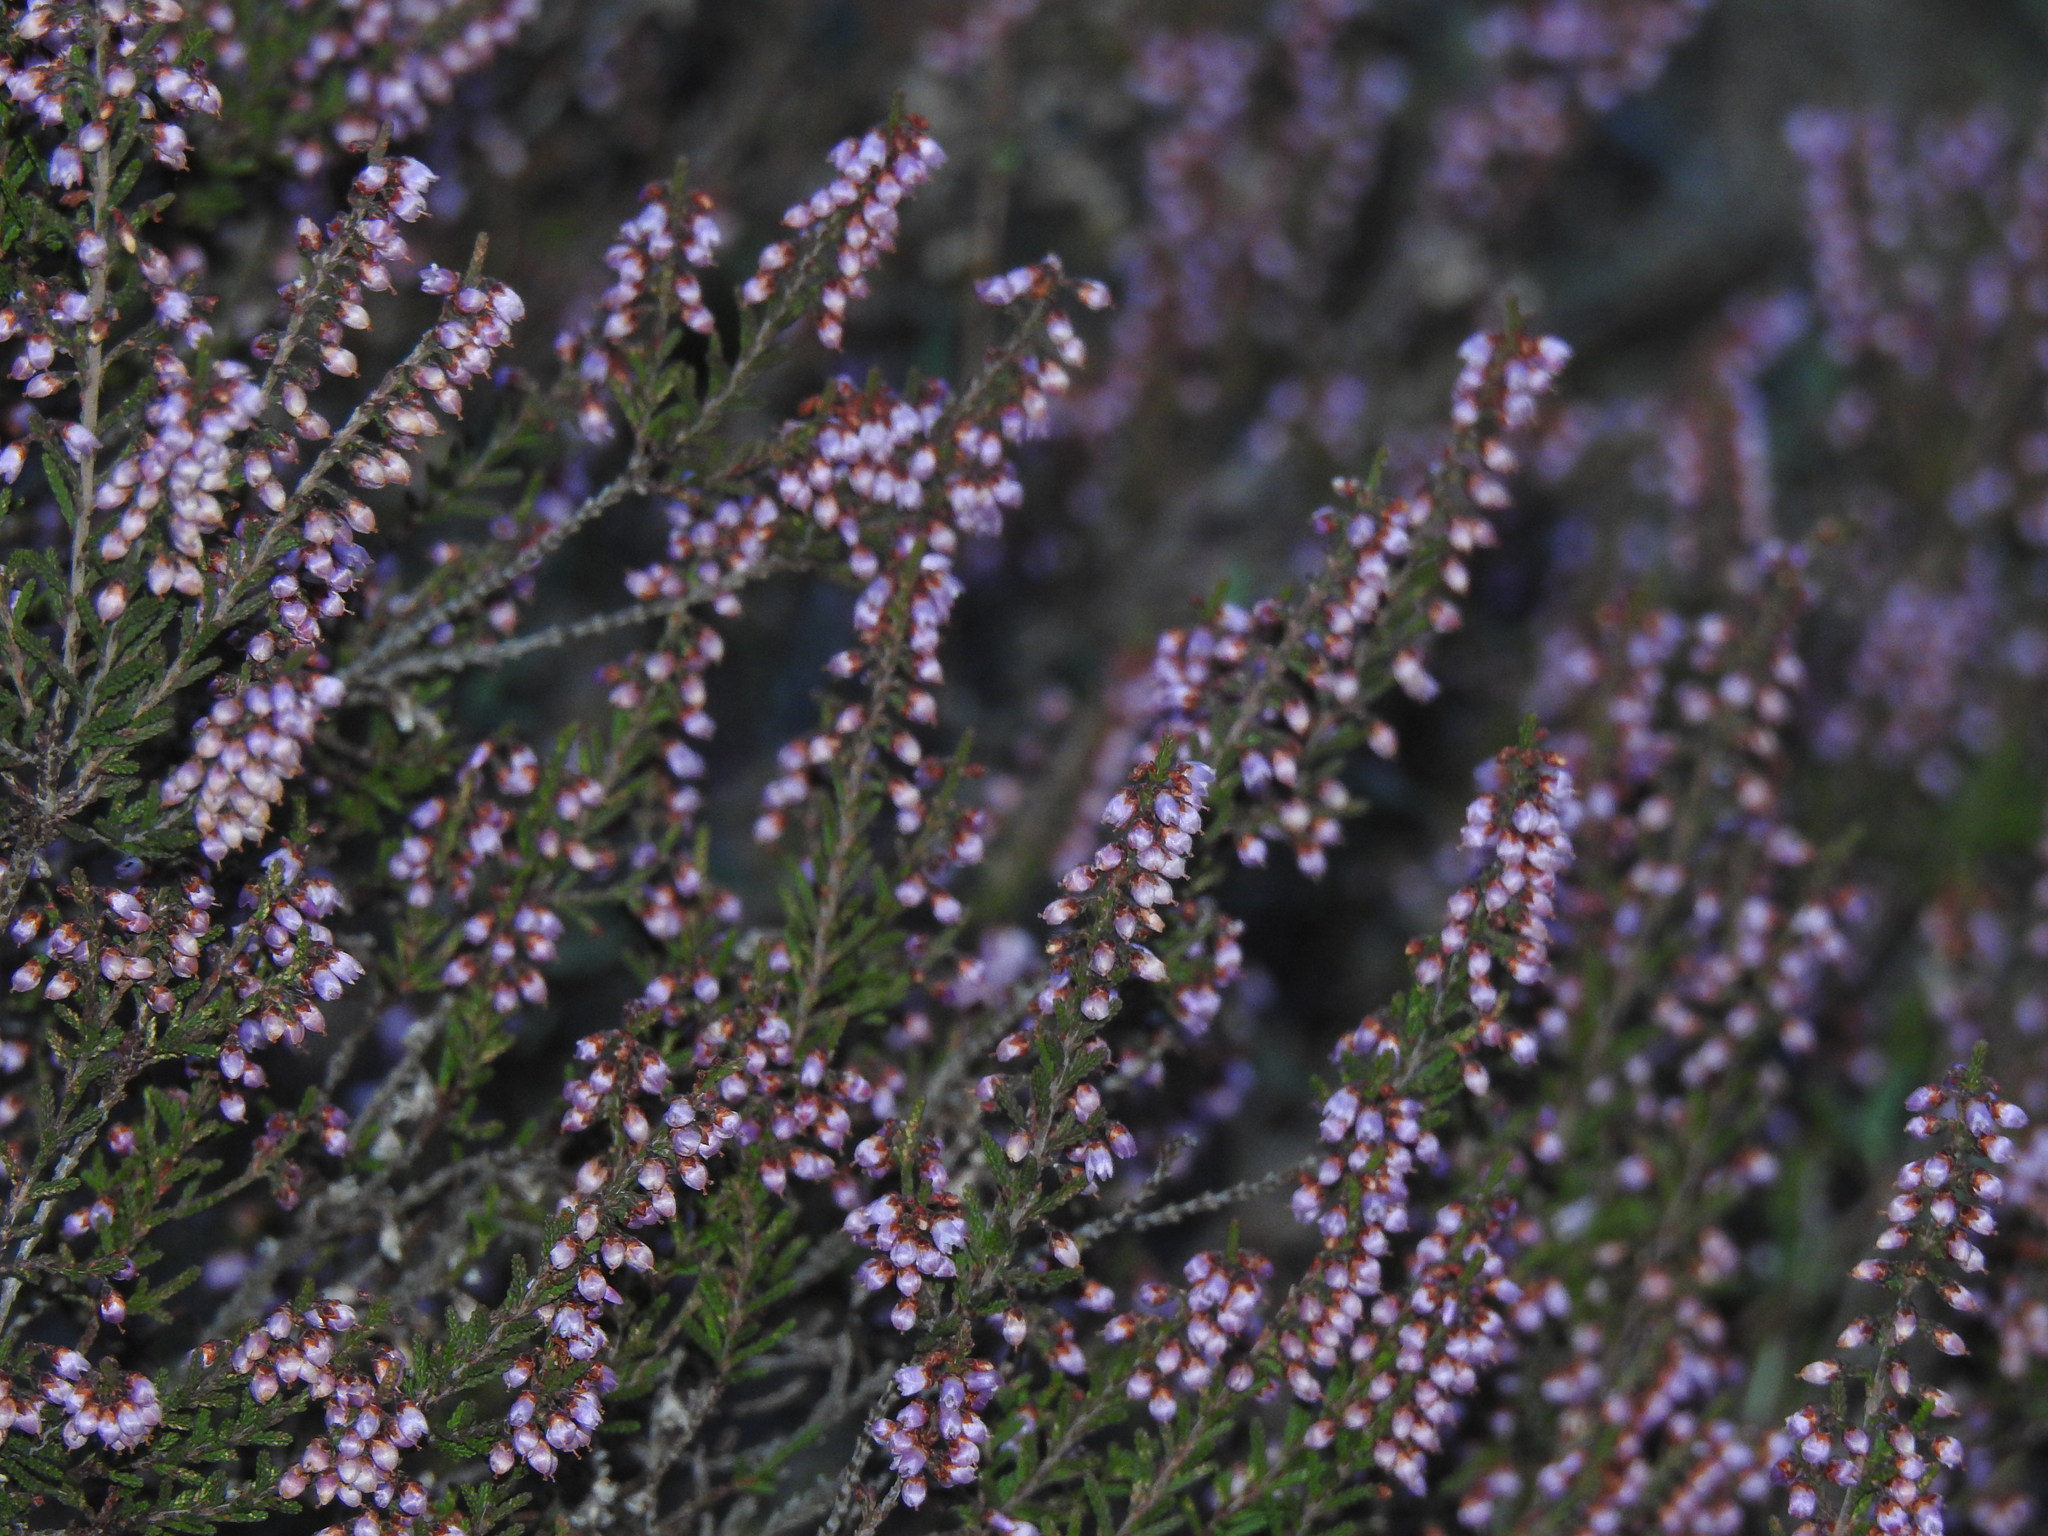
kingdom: Plantae
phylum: Tracheophyta
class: Magnoliopsida
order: Ericales
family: Ericaceae
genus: Calluna
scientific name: Calluna vulgaris
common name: Heather
